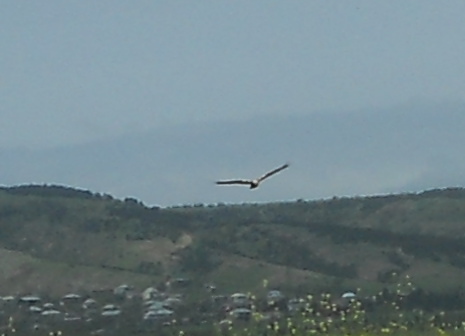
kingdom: Animalia
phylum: Chordata
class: Aves
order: Accipitriformes
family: Accipitridae
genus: Circus
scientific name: Circus aeruginosus
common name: Western marsh harrier
